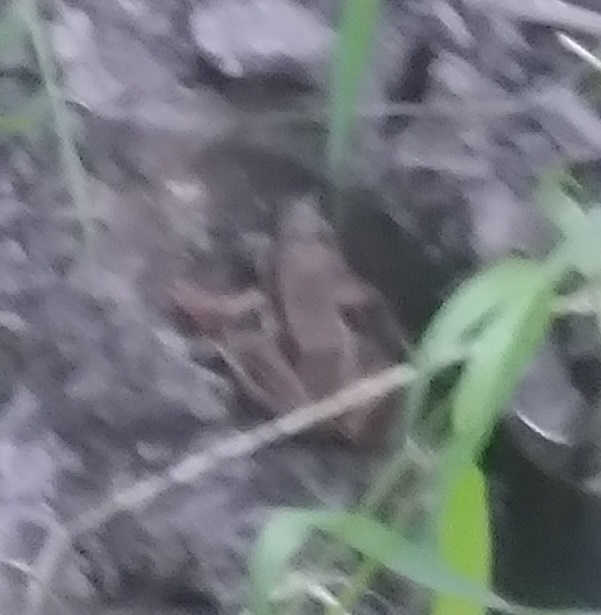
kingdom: Animalia
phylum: Chordata
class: Amphibia
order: Anura
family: Ranidae
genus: Lithobates
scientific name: Lithobates sylvaticus
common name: Wood frog
